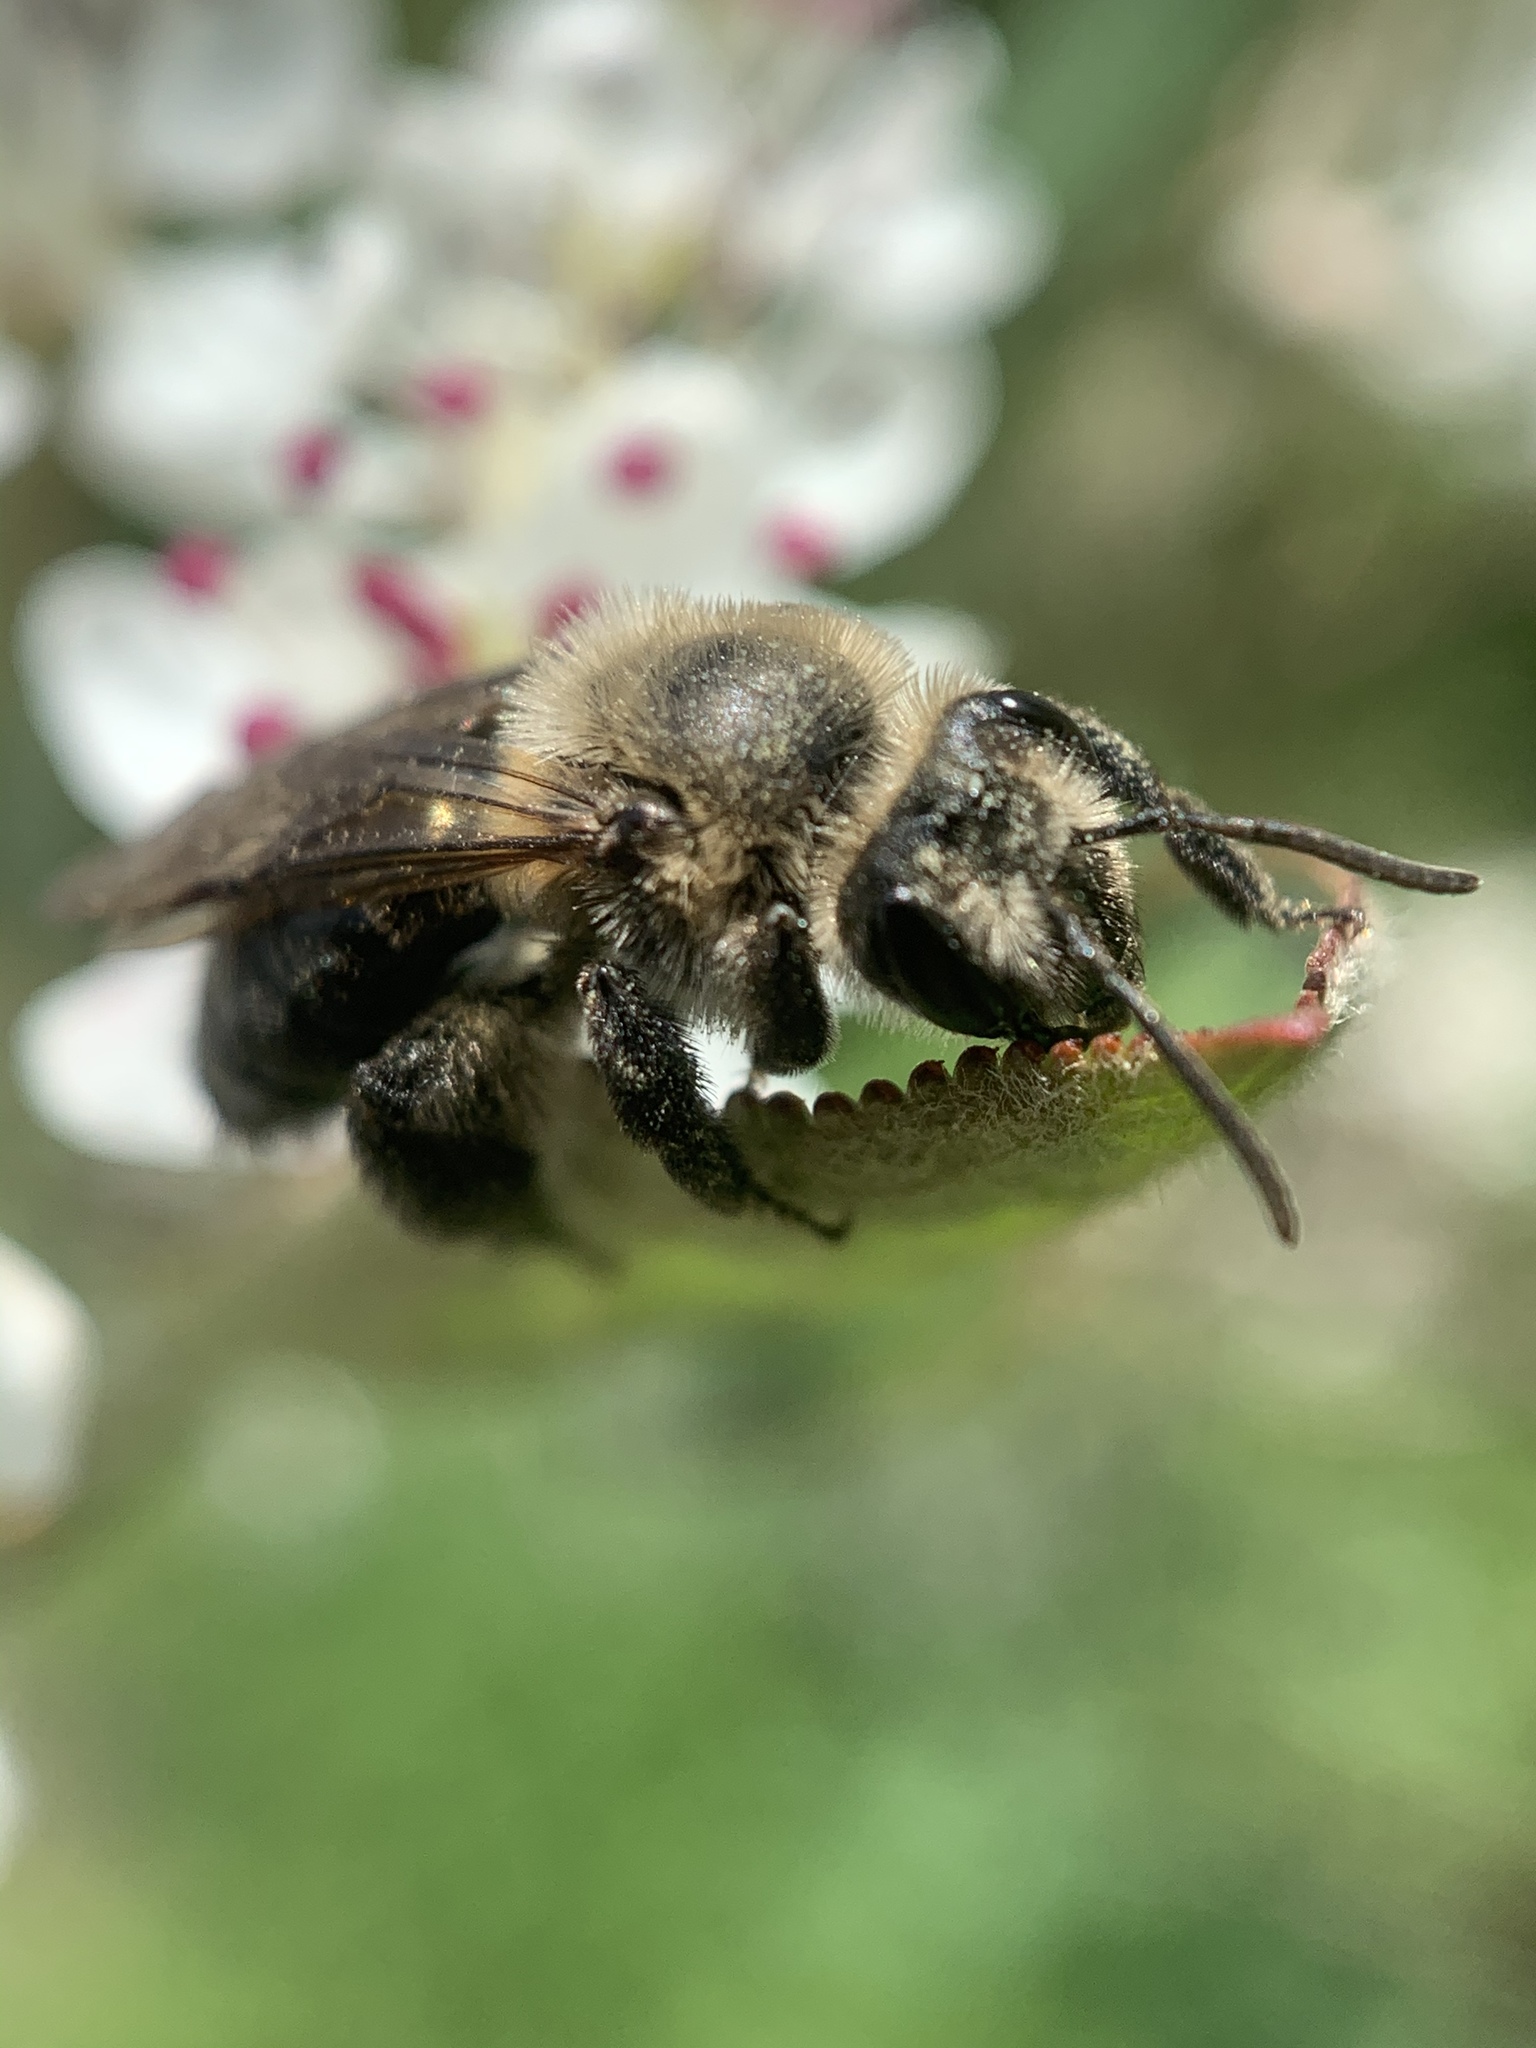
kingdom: Animalia
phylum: Arthropoda
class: Insecta
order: Hymenoptera
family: Andrenidae
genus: Andrena
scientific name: Andrena vicina
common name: Neighborly mining bee
